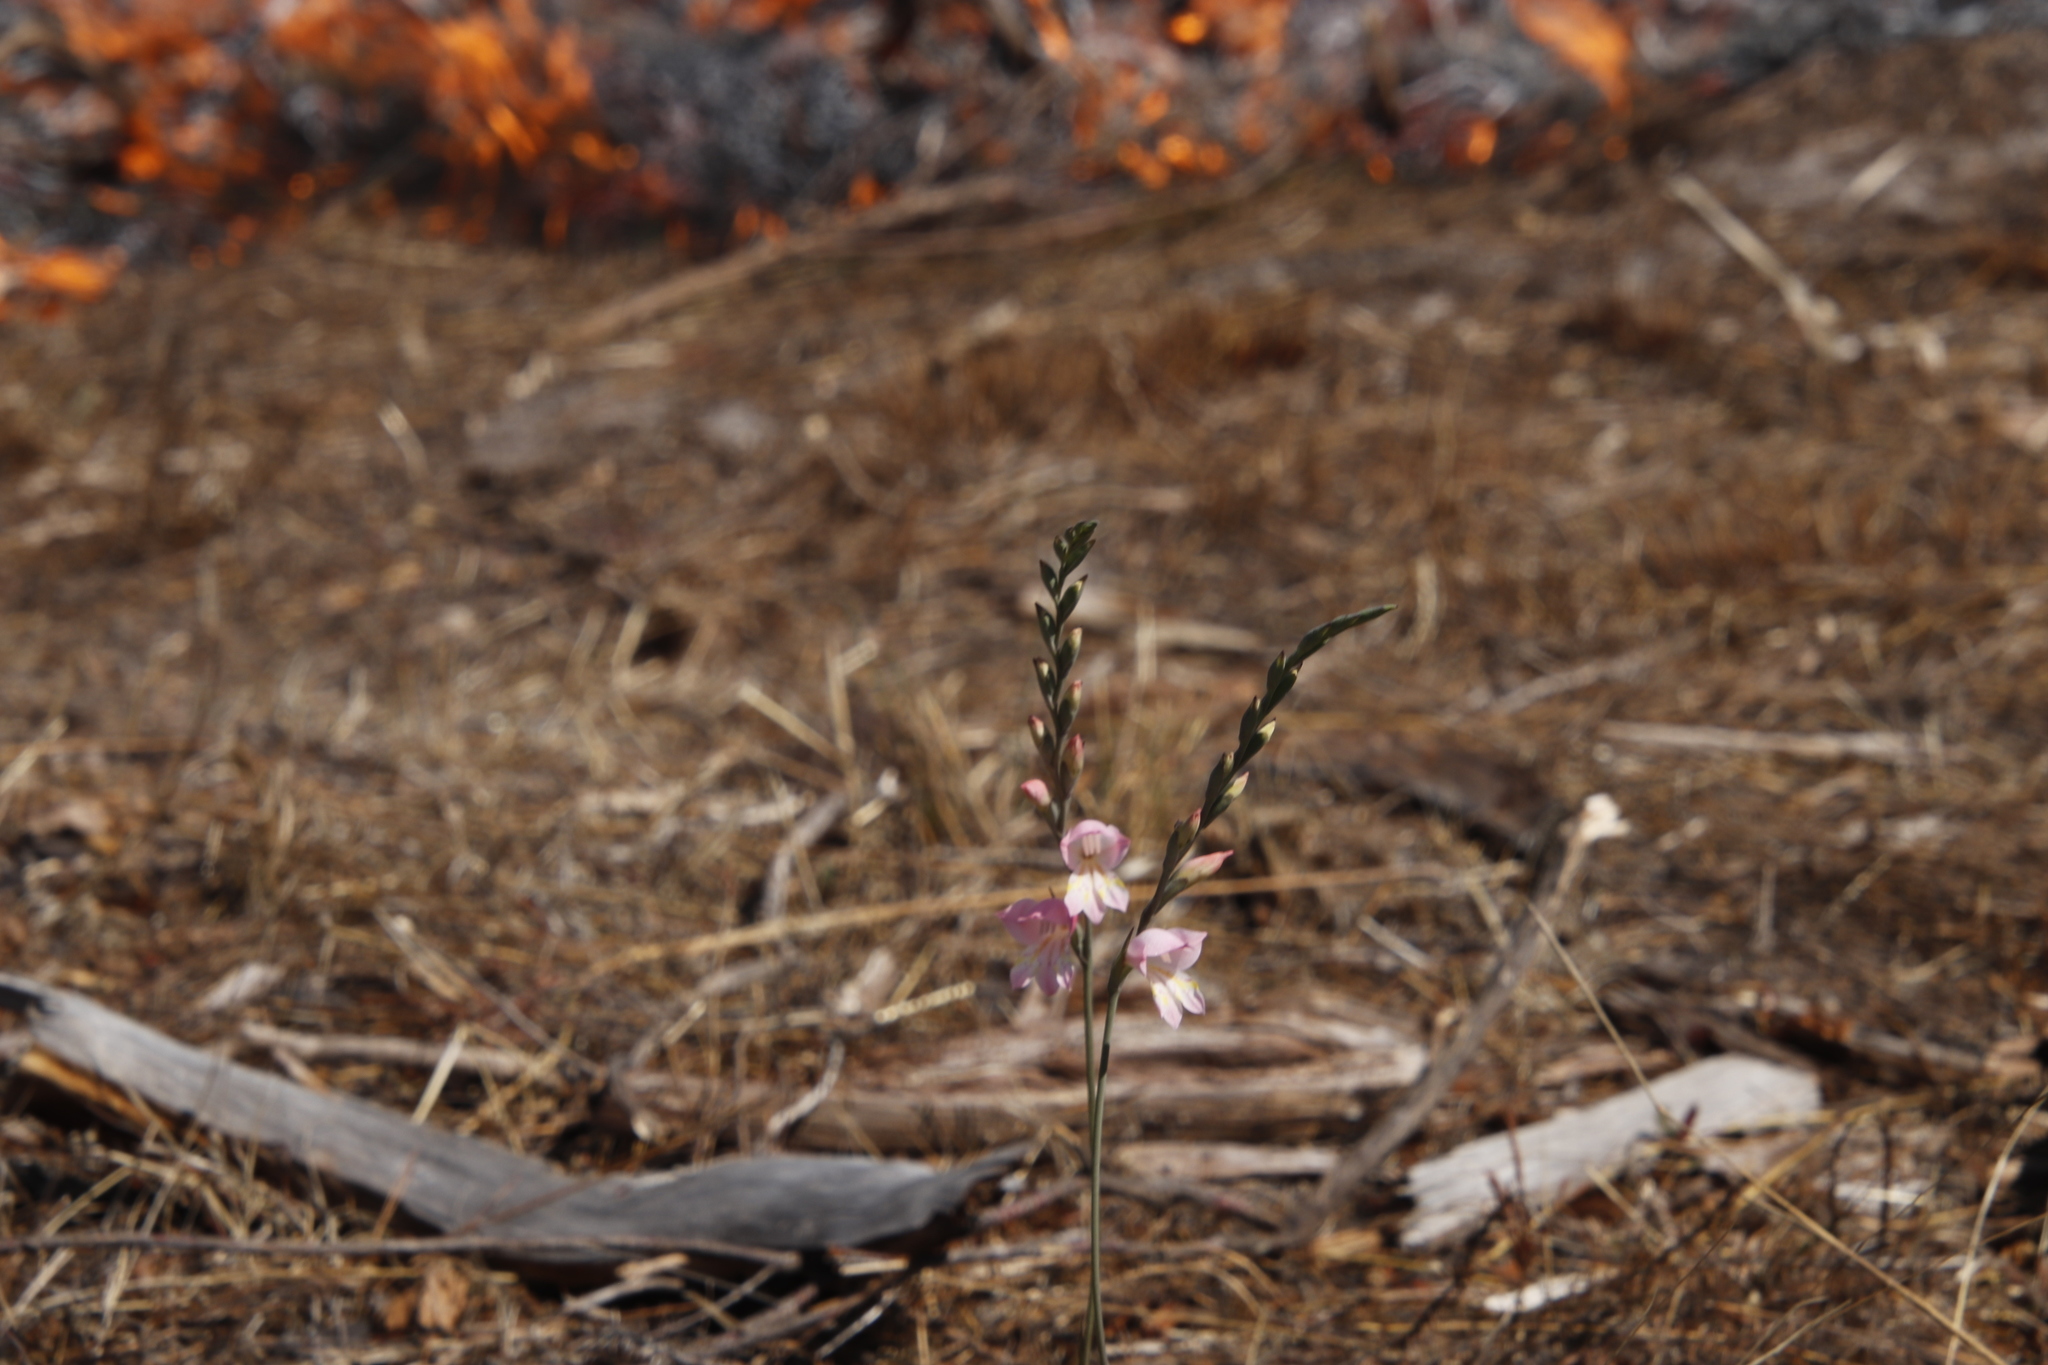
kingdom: Plantae
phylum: Tracheophyta
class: Liliopsida
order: Asparagales
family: Iridaceae
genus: Gladiolus
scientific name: Gladiolus brevifolius
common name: March pypie
